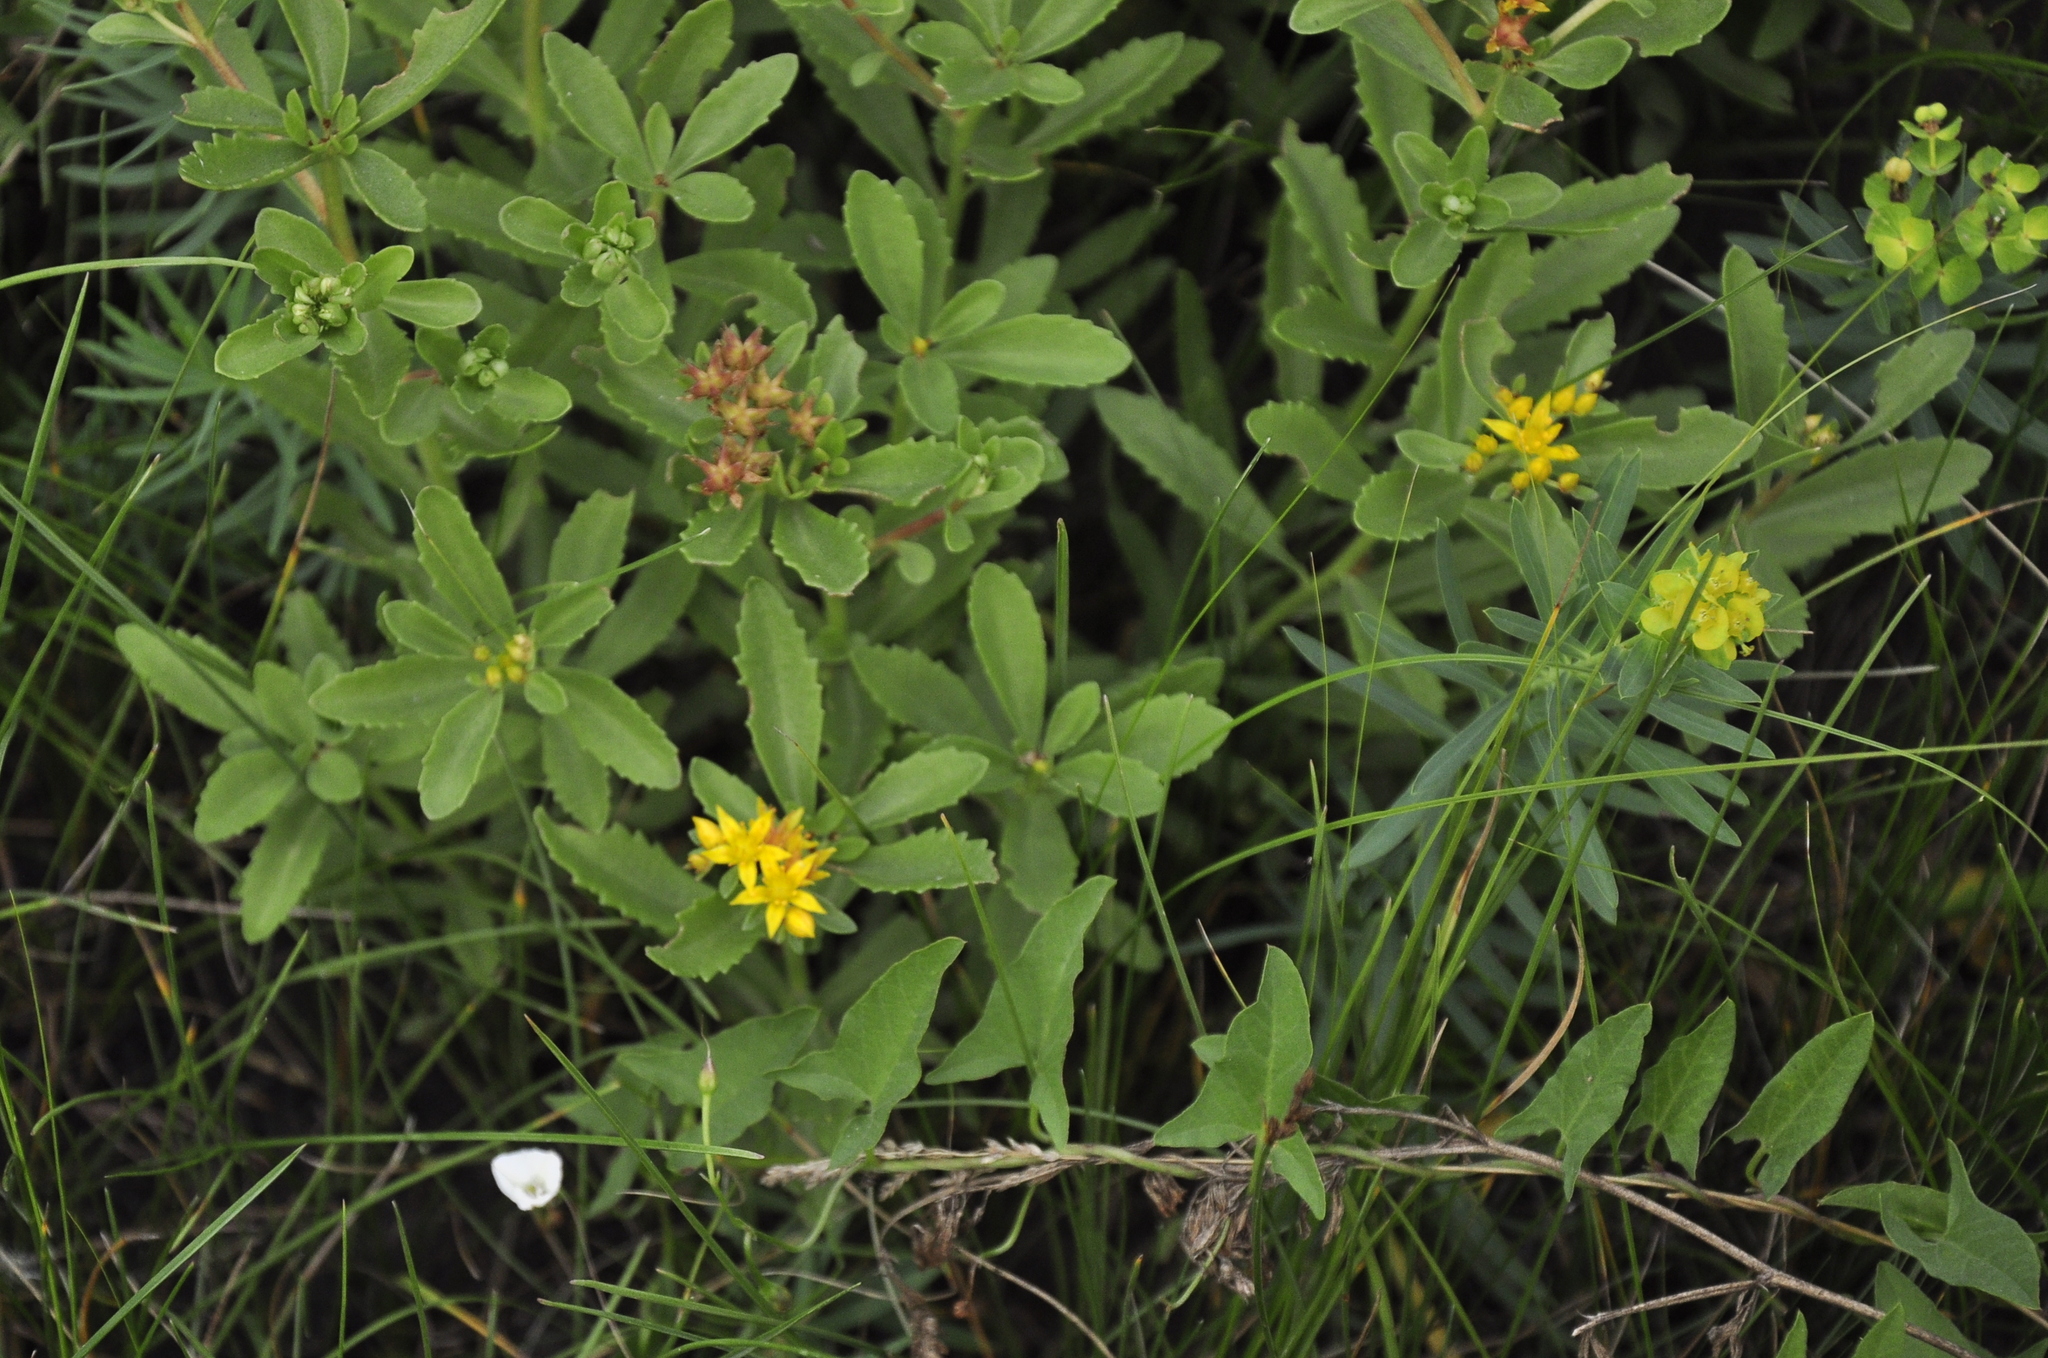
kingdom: Plantae
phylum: Tracheophyta
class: Magnoliopsida
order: Saxifragales
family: Crassulaceae
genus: Phedimus
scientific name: Phedimus aizoon
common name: Orpin aizoon
